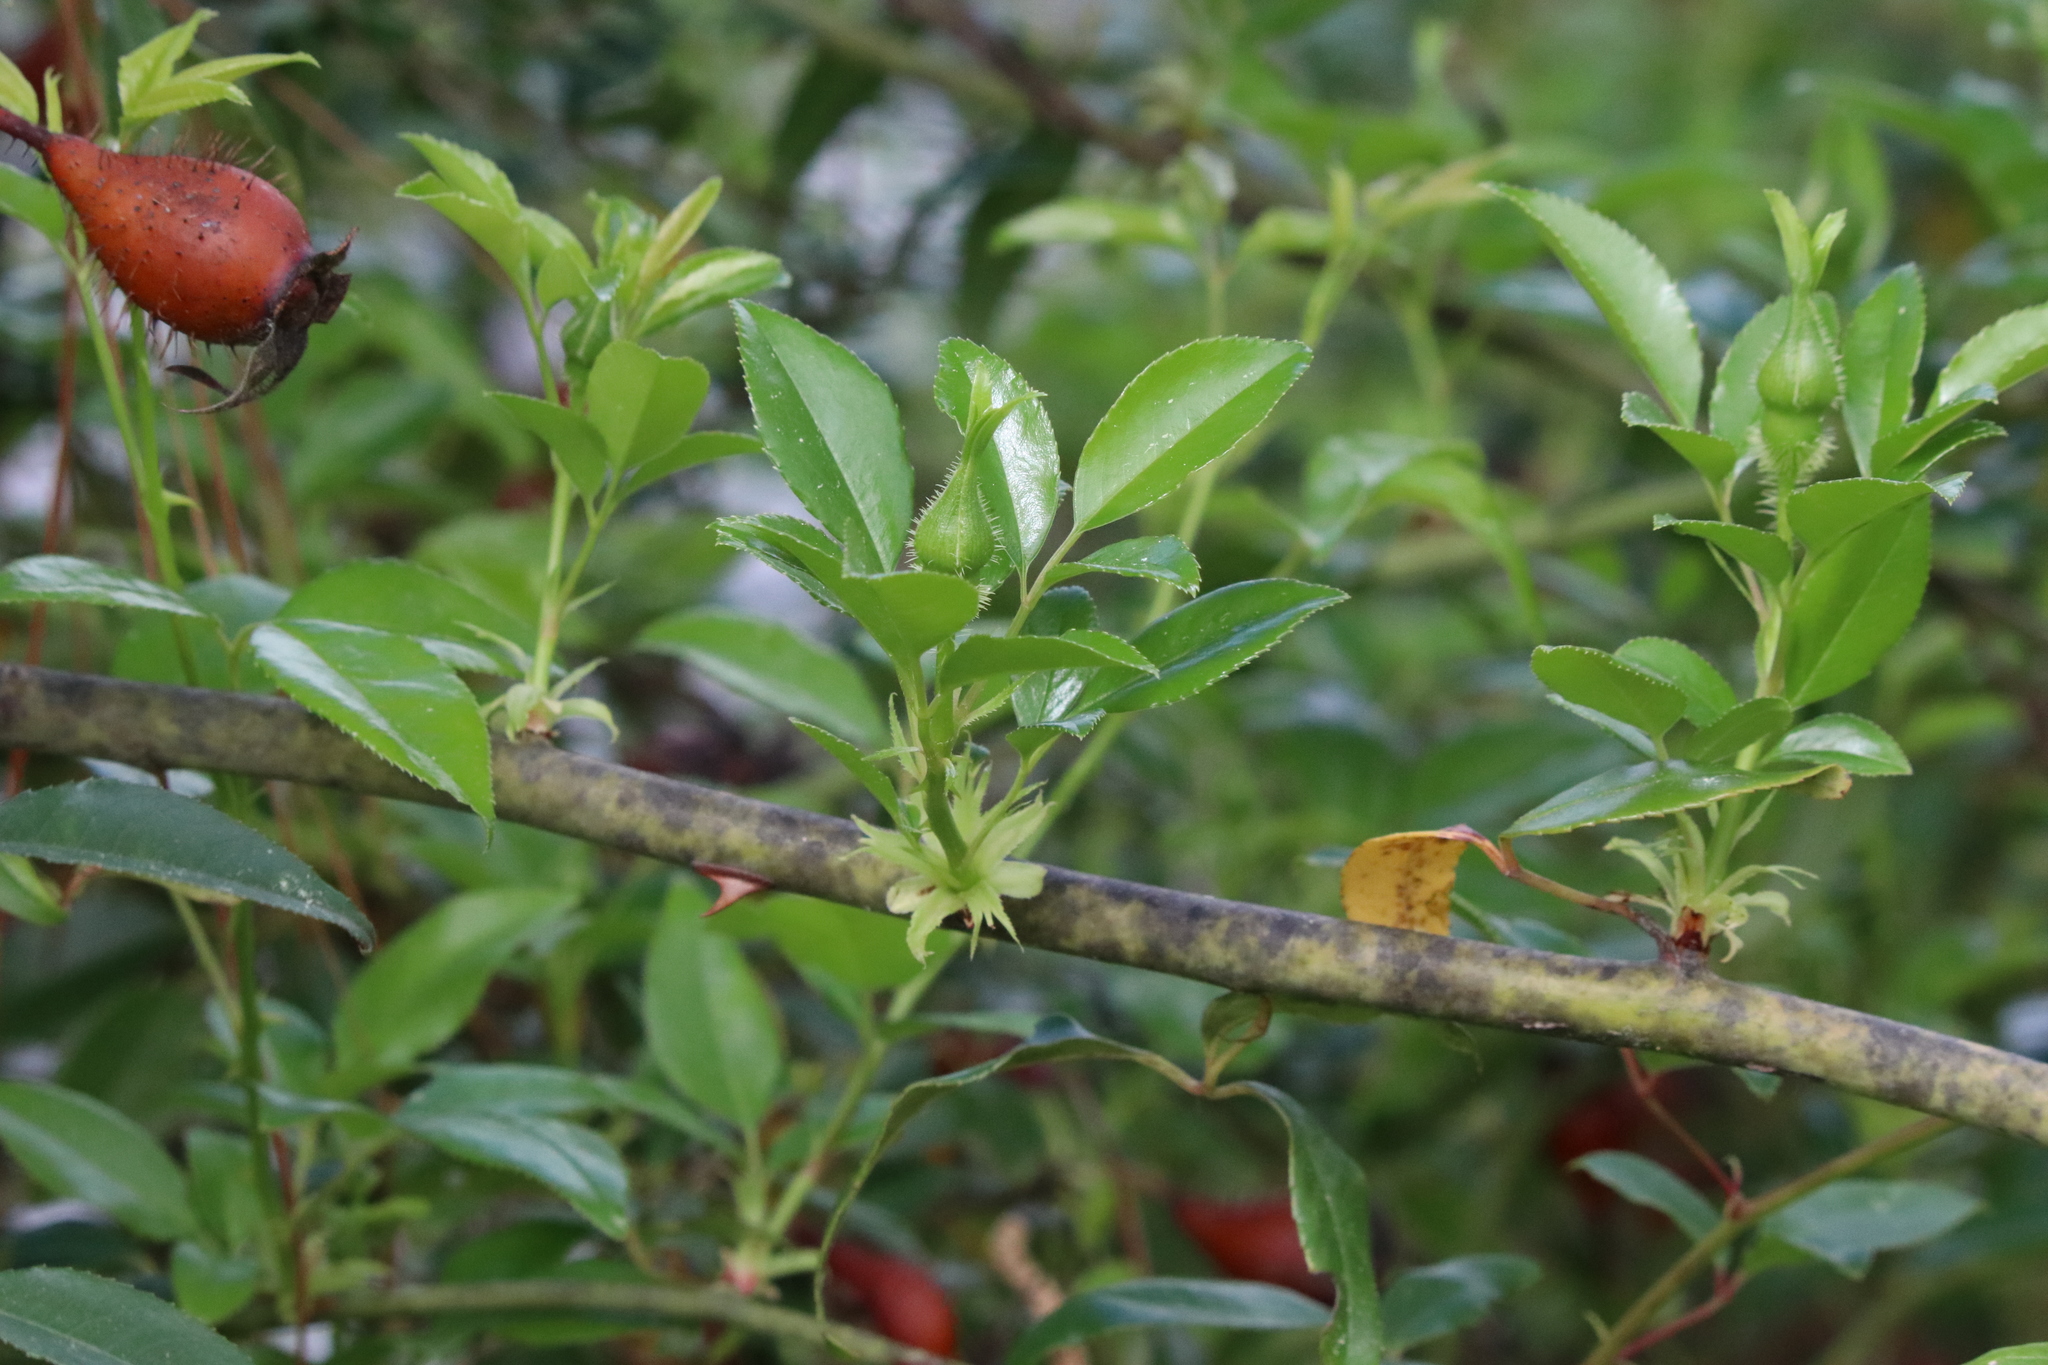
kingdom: Plantae
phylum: Tracheophyta
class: Magnoliopsida
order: Rosales
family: Rosaceae
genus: Rosa
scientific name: Rosa laevigata
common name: Cherokee rose
